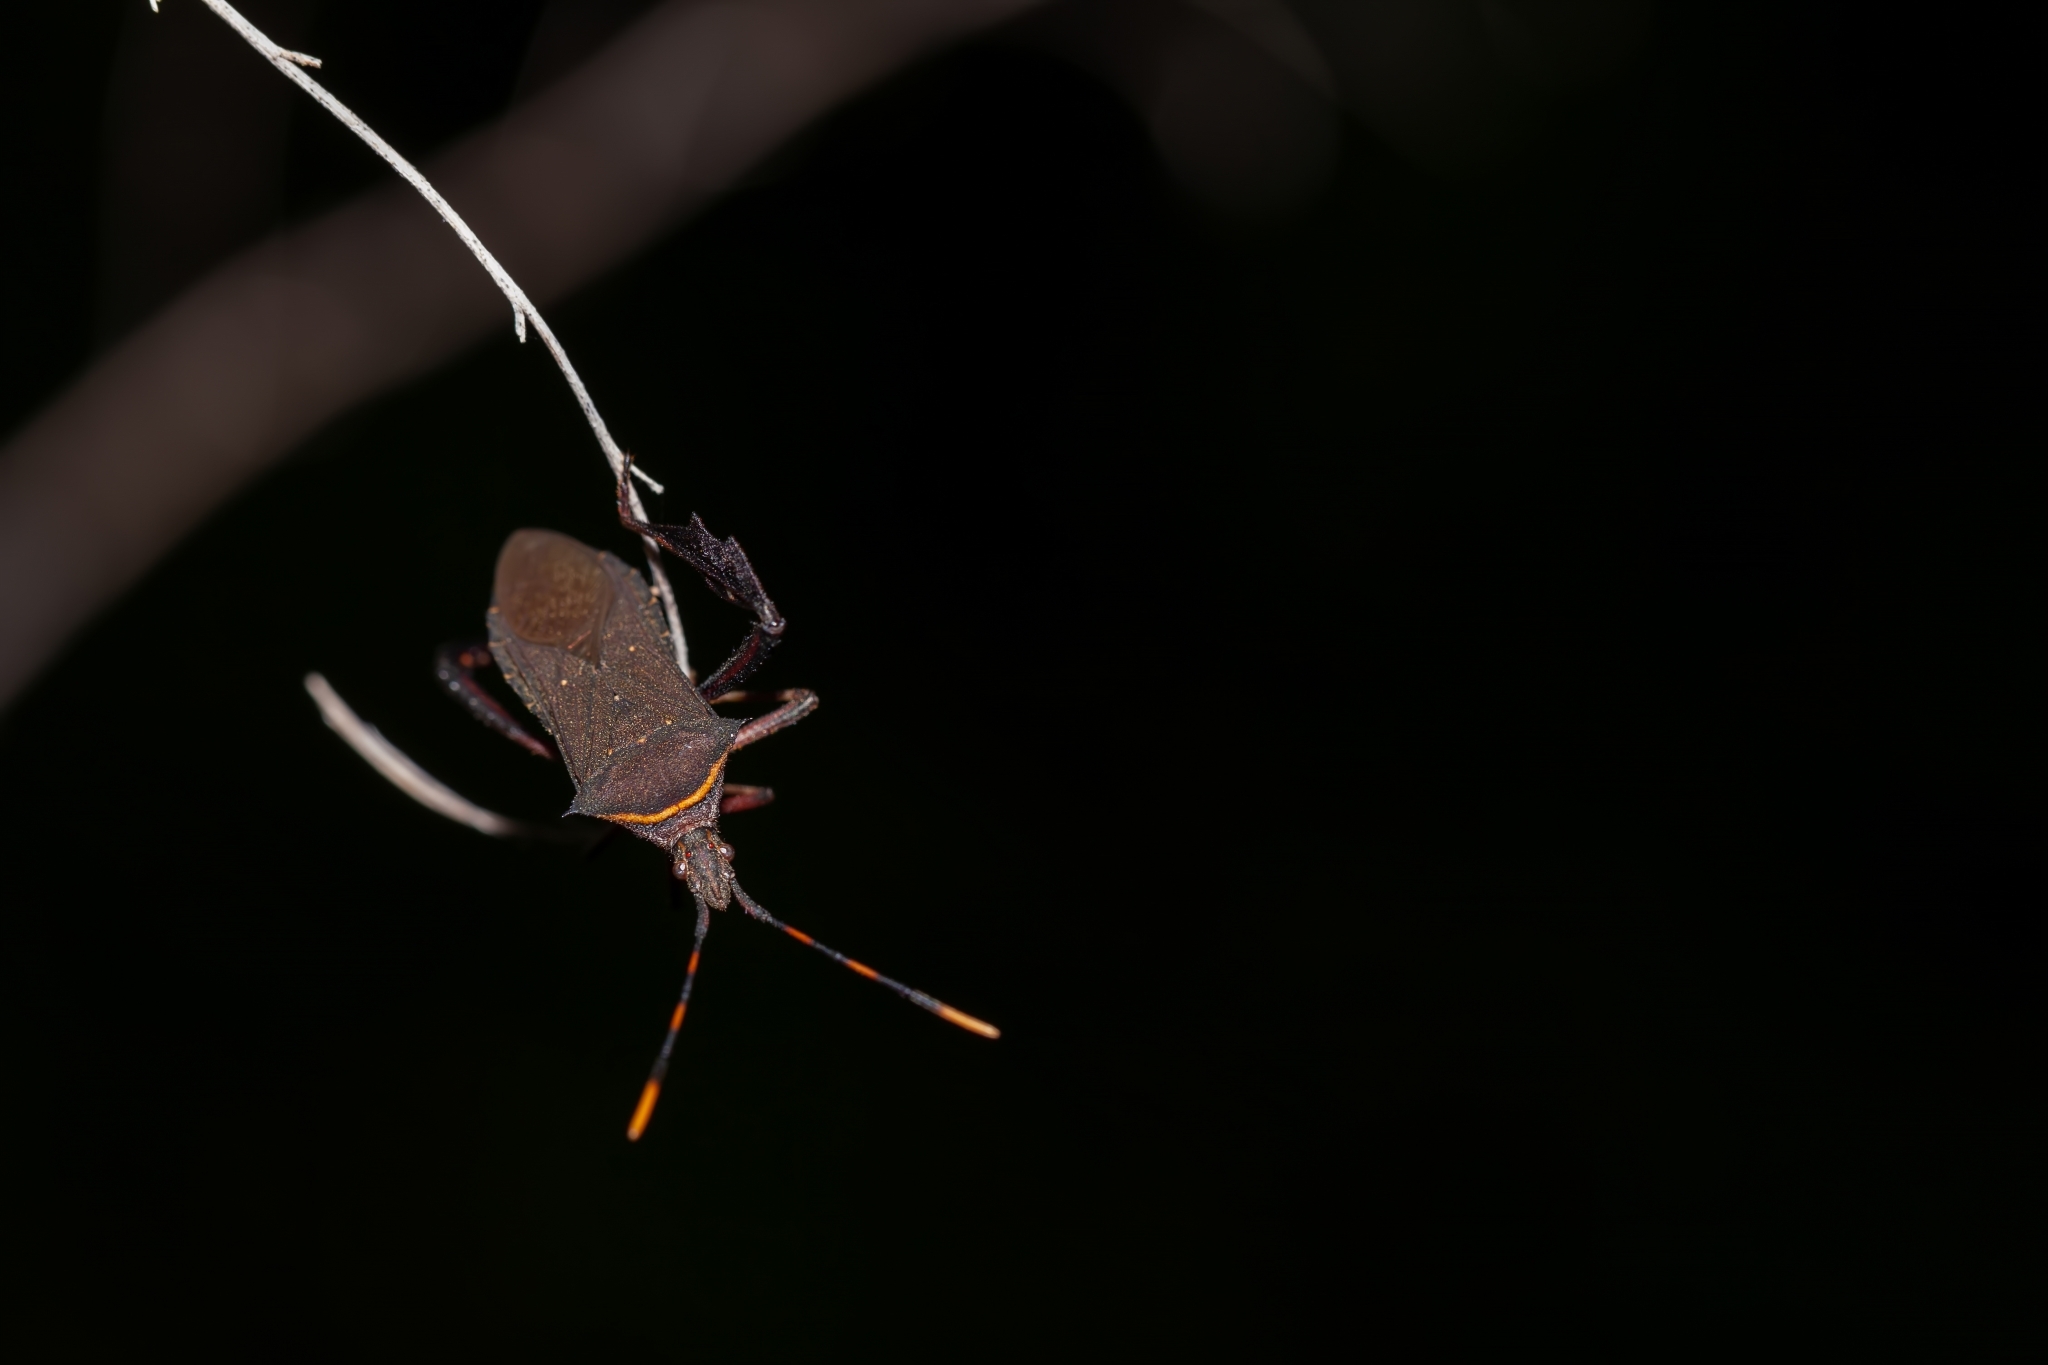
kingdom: Animalia
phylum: Arthropoda
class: Insecta
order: Hemiptera
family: Coreidae
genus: Leptoglossus
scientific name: Leptoglossus gonagra
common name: Citron bug
